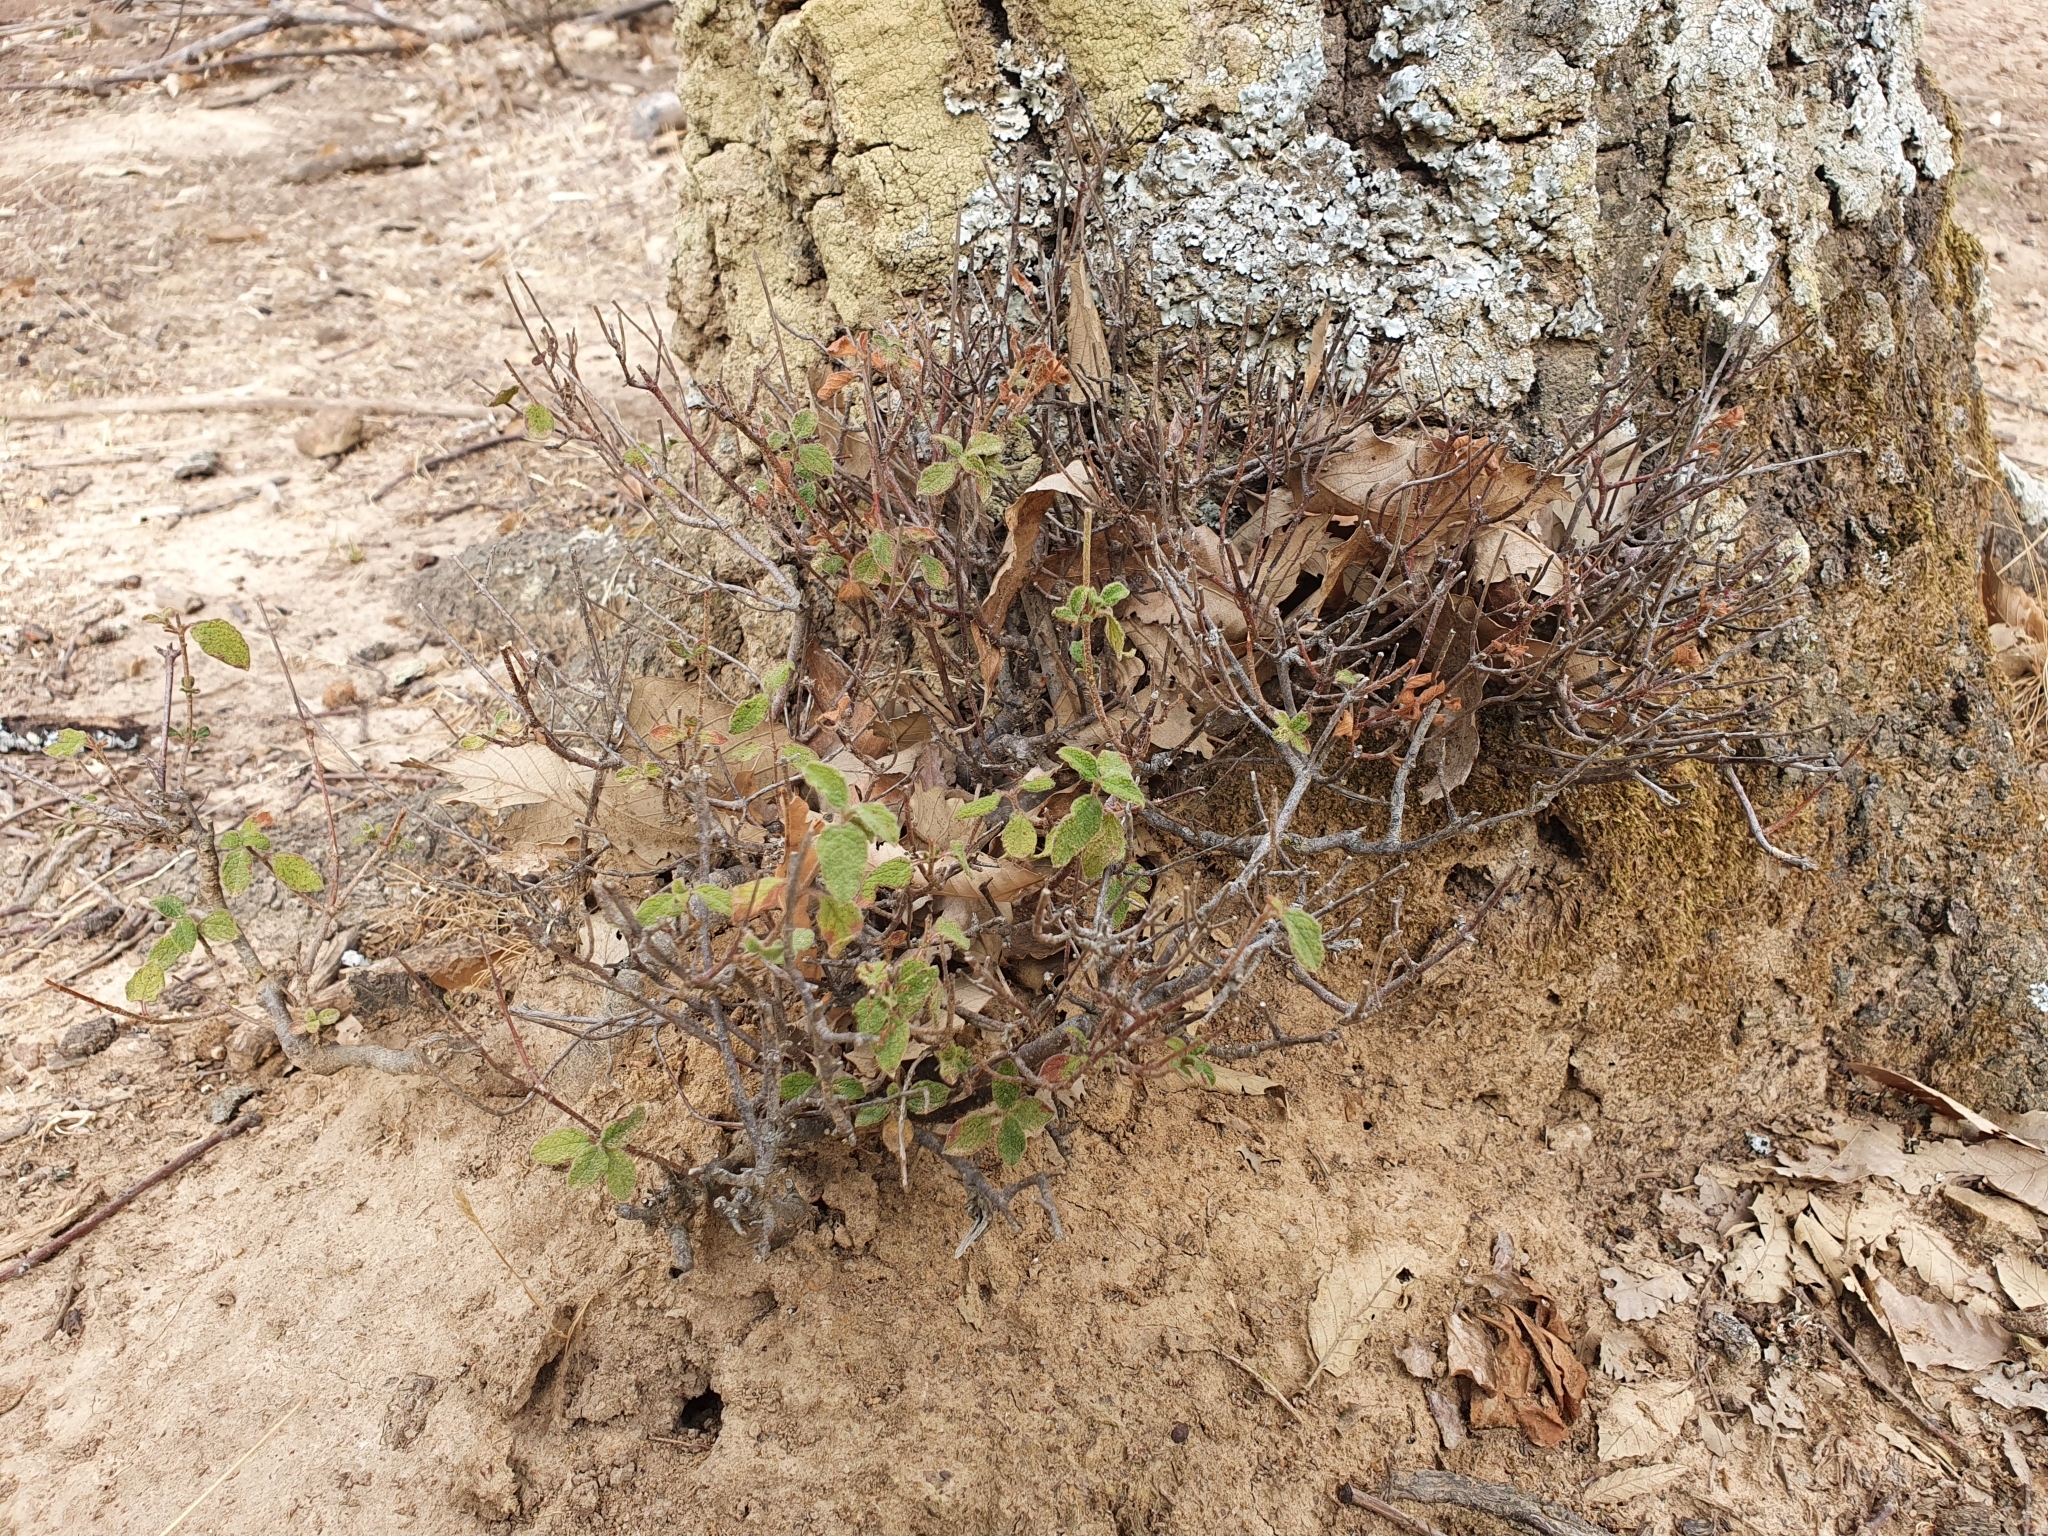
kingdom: Plantae
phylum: Tracheophyta
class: Magnoliopsida
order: Malvales
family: Cistaceae
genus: Cistus
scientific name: Cistus salviifolius
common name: Salvia cistus
